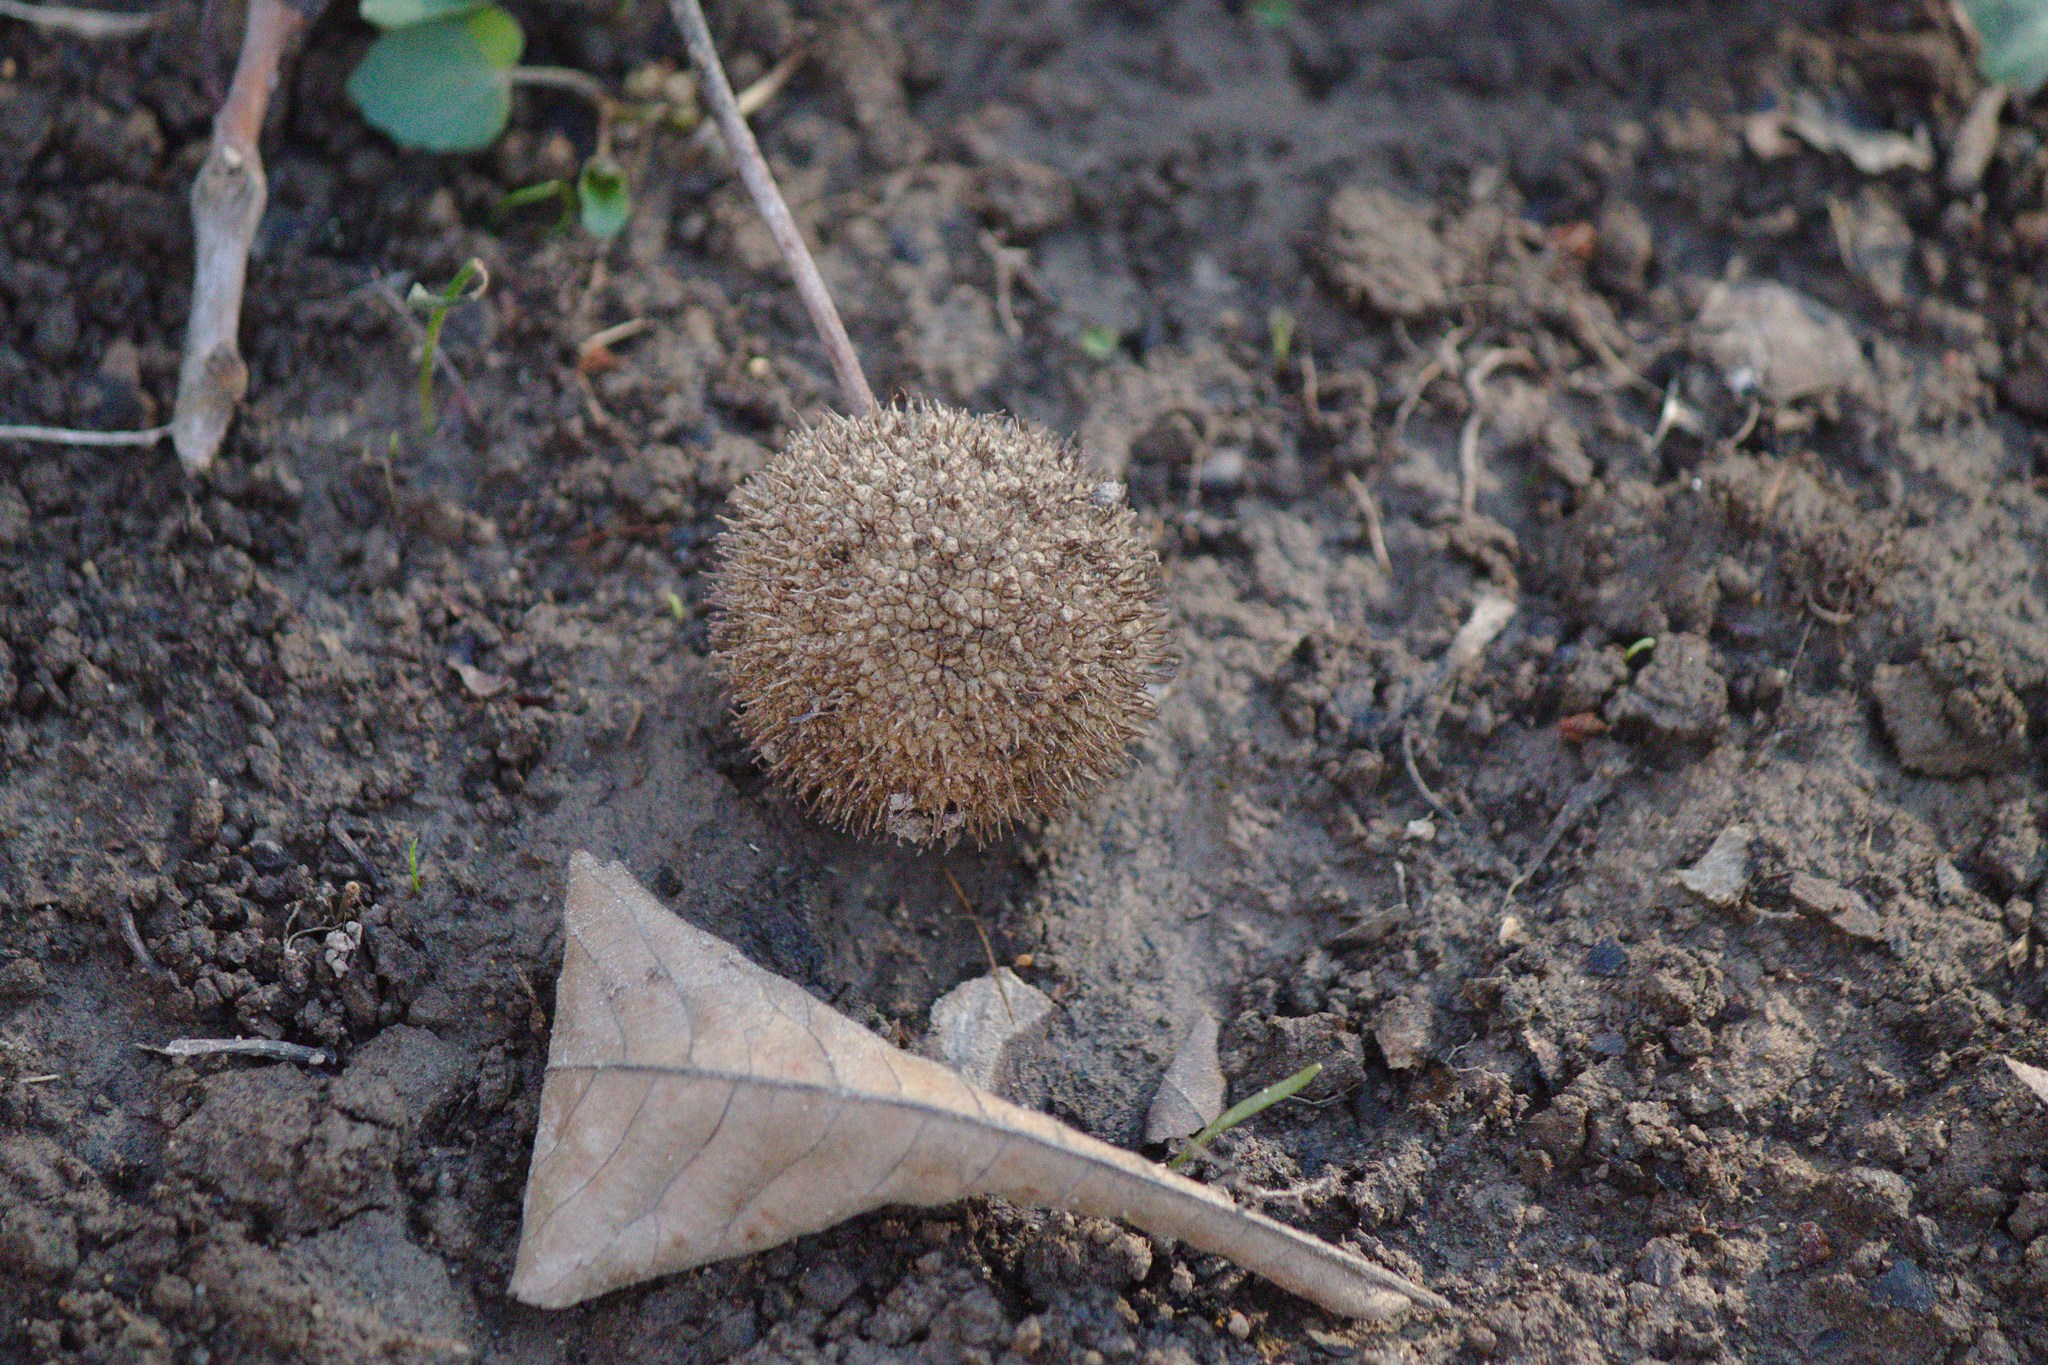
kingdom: Plantae
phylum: Tracheophyta
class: Magnoliopsida
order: Proteales
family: Platanaceae
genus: Platanus
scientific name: Platanus occidentalis
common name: American sycamore
